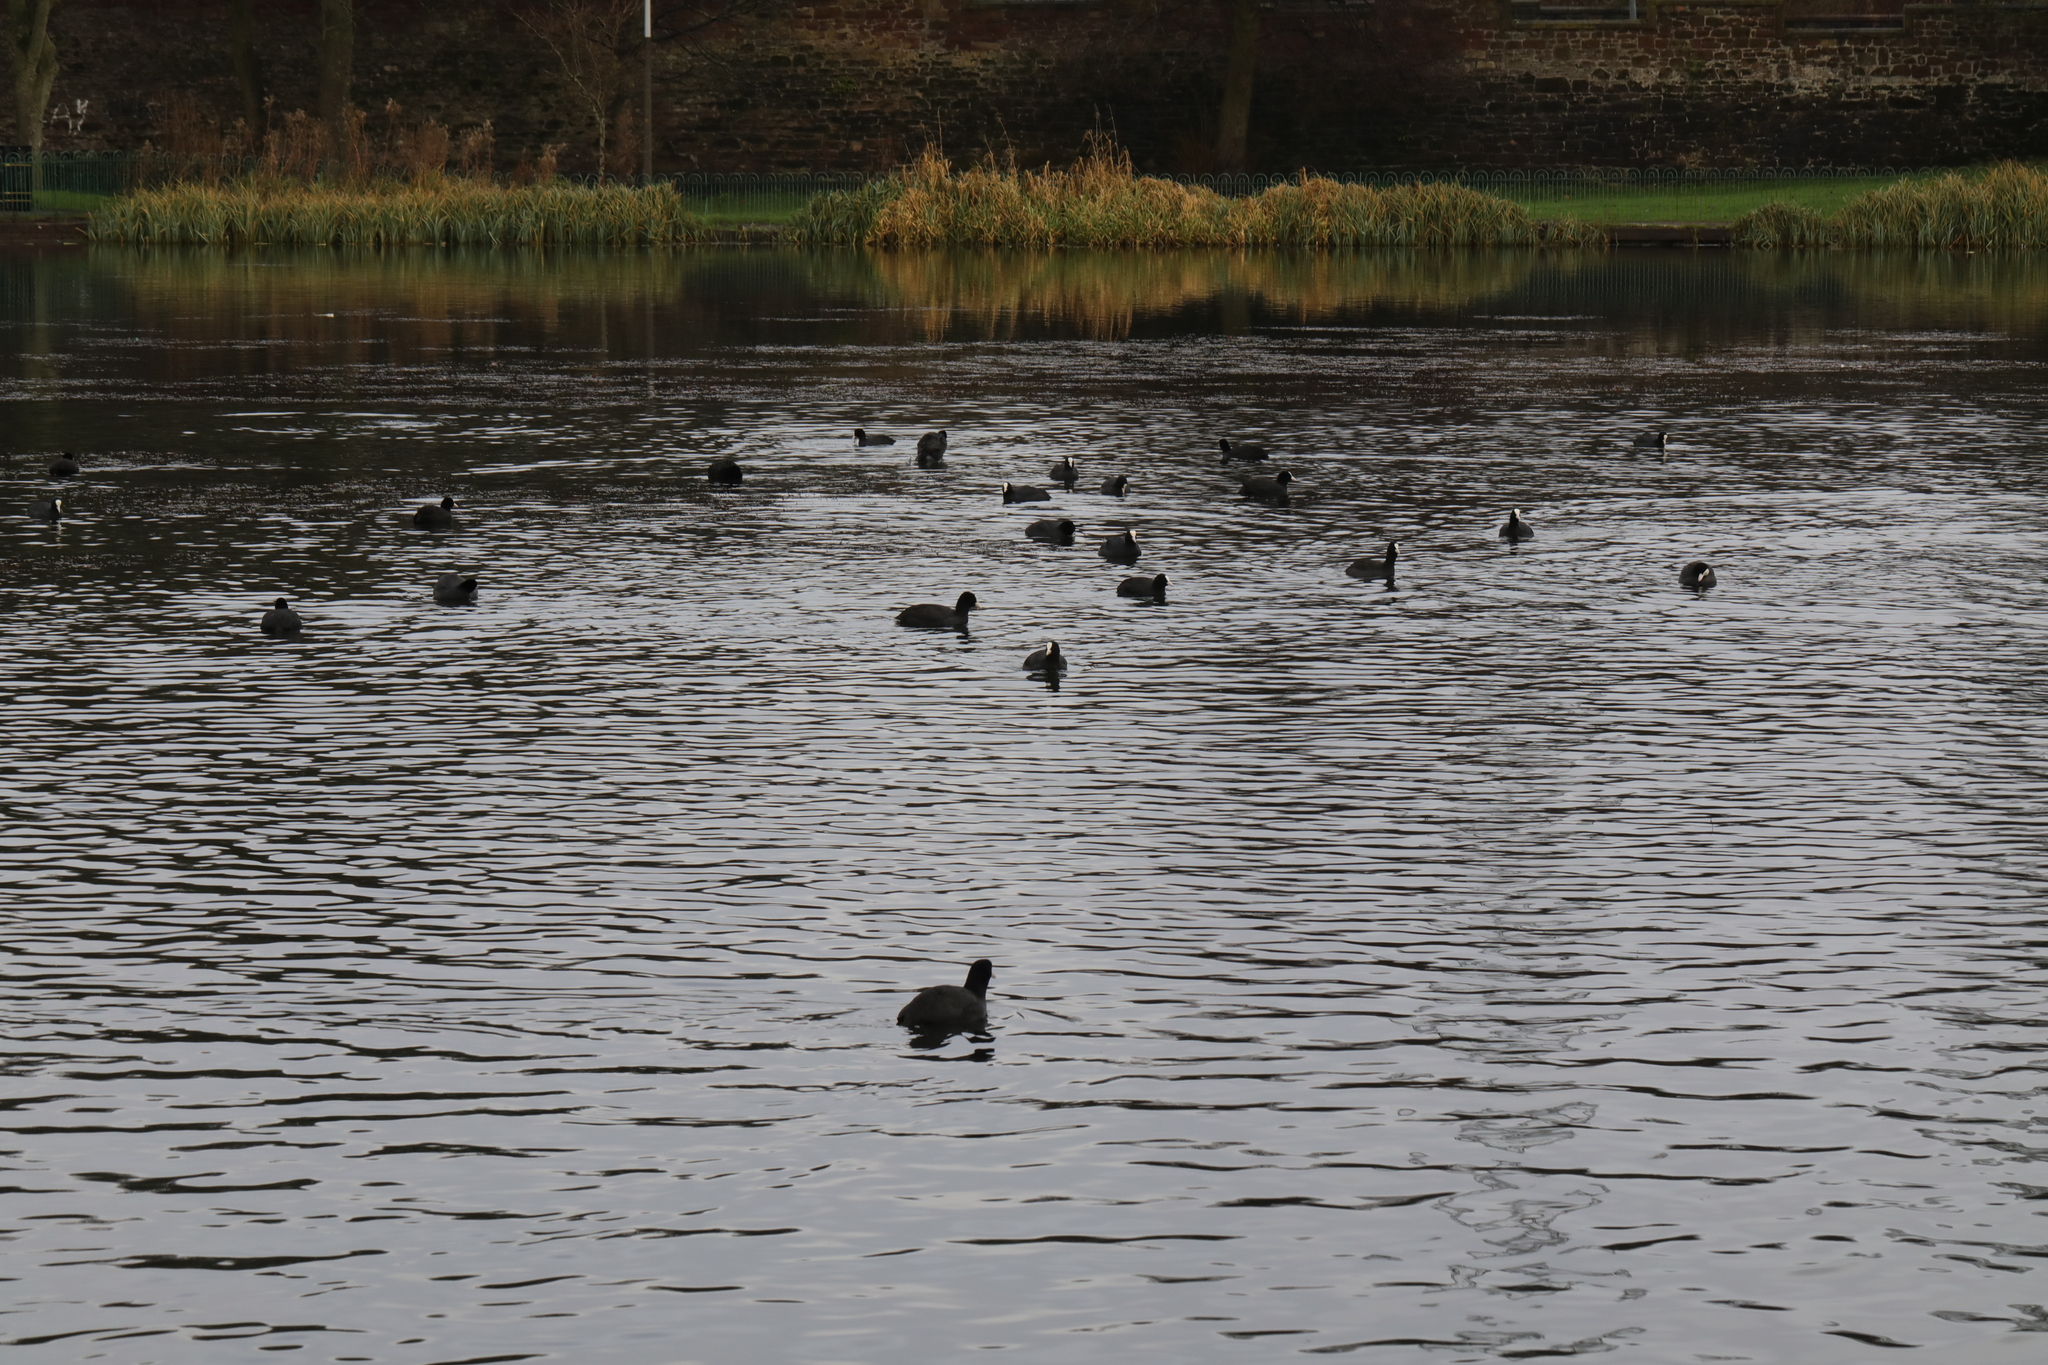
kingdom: Animalia
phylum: Chordata
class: Aves
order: Gruiformes
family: Rallidae
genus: Fulica
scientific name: Fulica atra
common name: Eurasian coot
